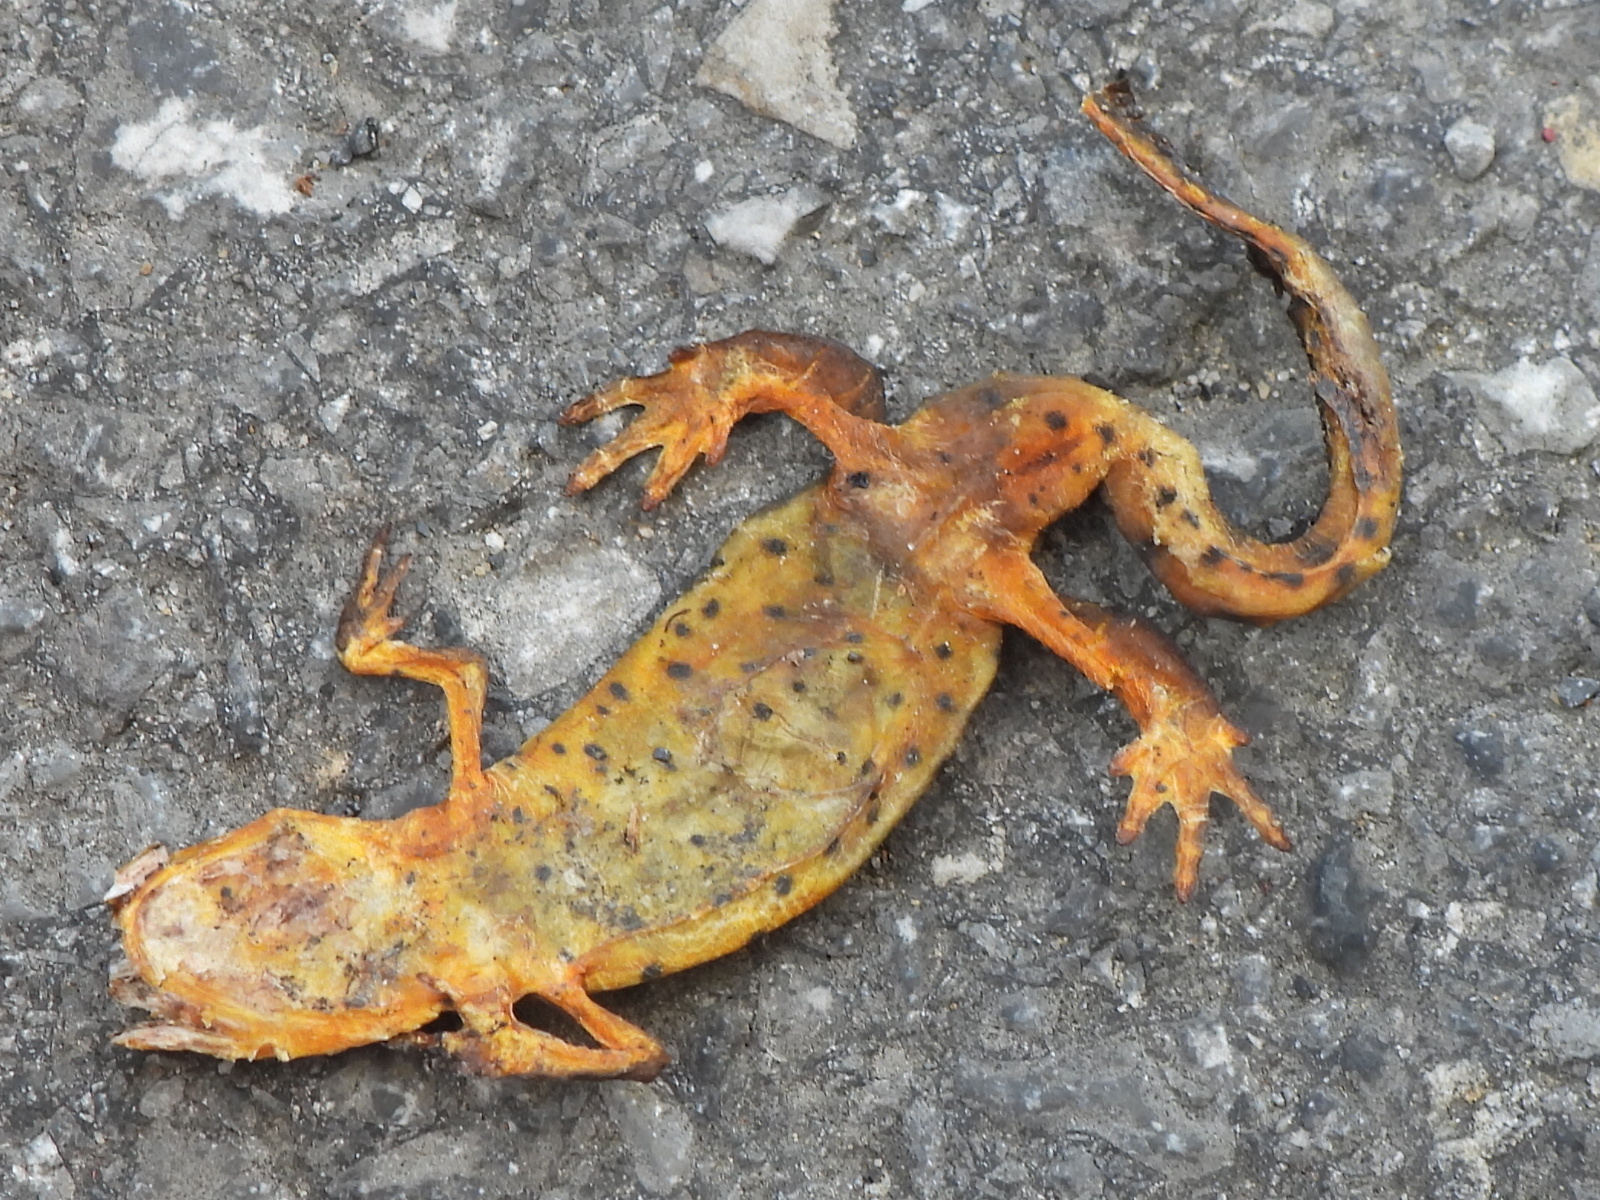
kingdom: Animalia
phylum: Chordata
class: Amphibia
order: Caudata
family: Salamandridae
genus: Notophthalmus
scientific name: Notophthalmus viridescens
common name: Eastern newt
